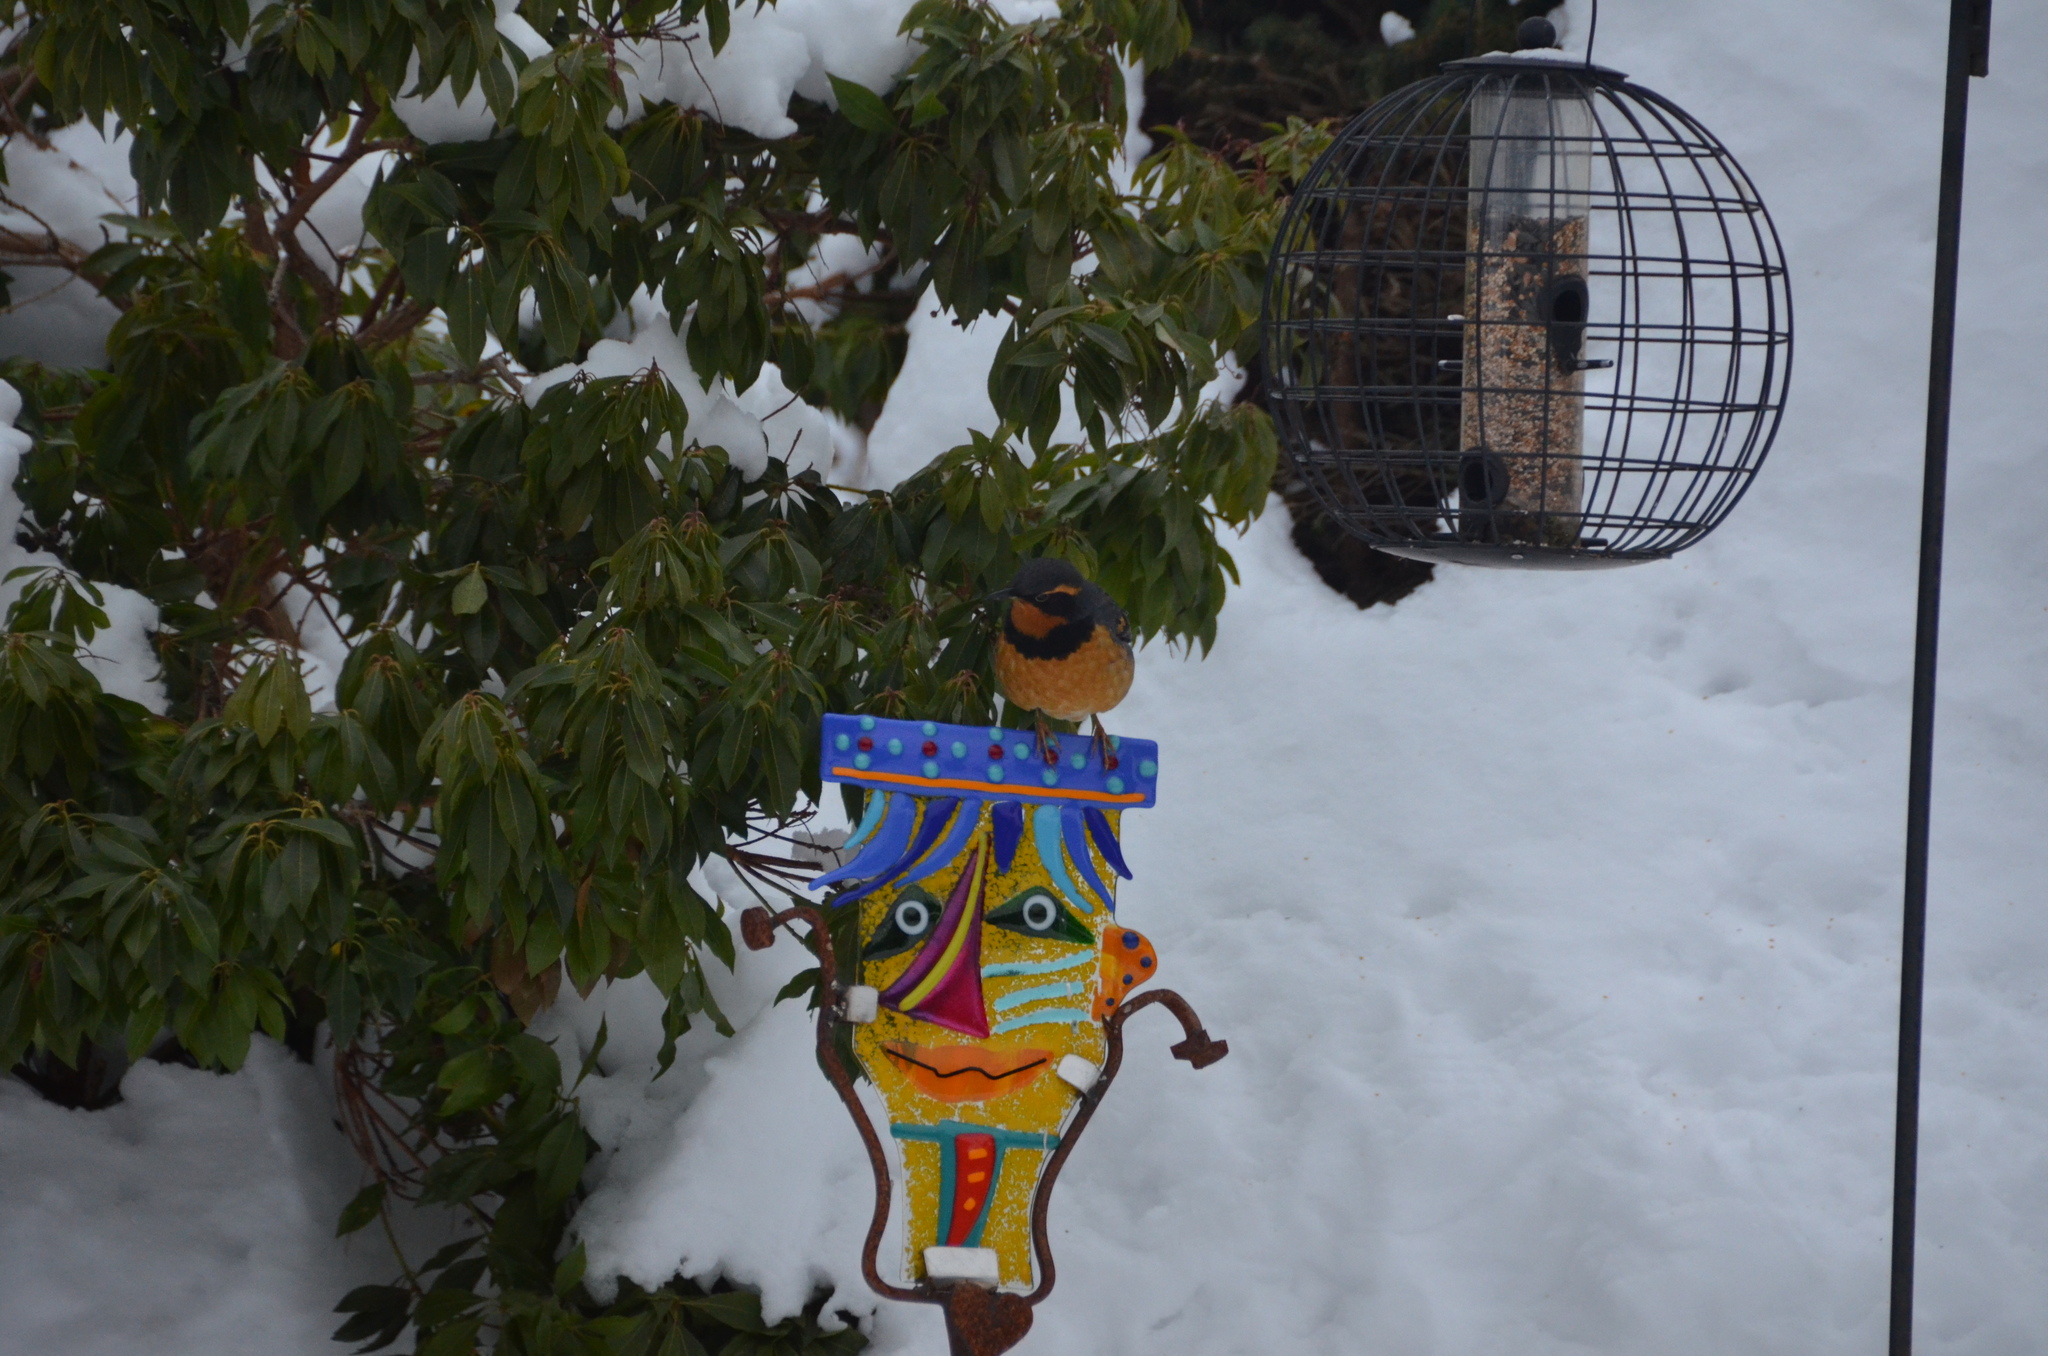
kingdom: Animalia
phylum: Chordata
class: Aves
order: Passeriformes
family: Turdidae
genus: Ixoreus
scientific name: Ixoreus naevius
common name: Varied thrush
